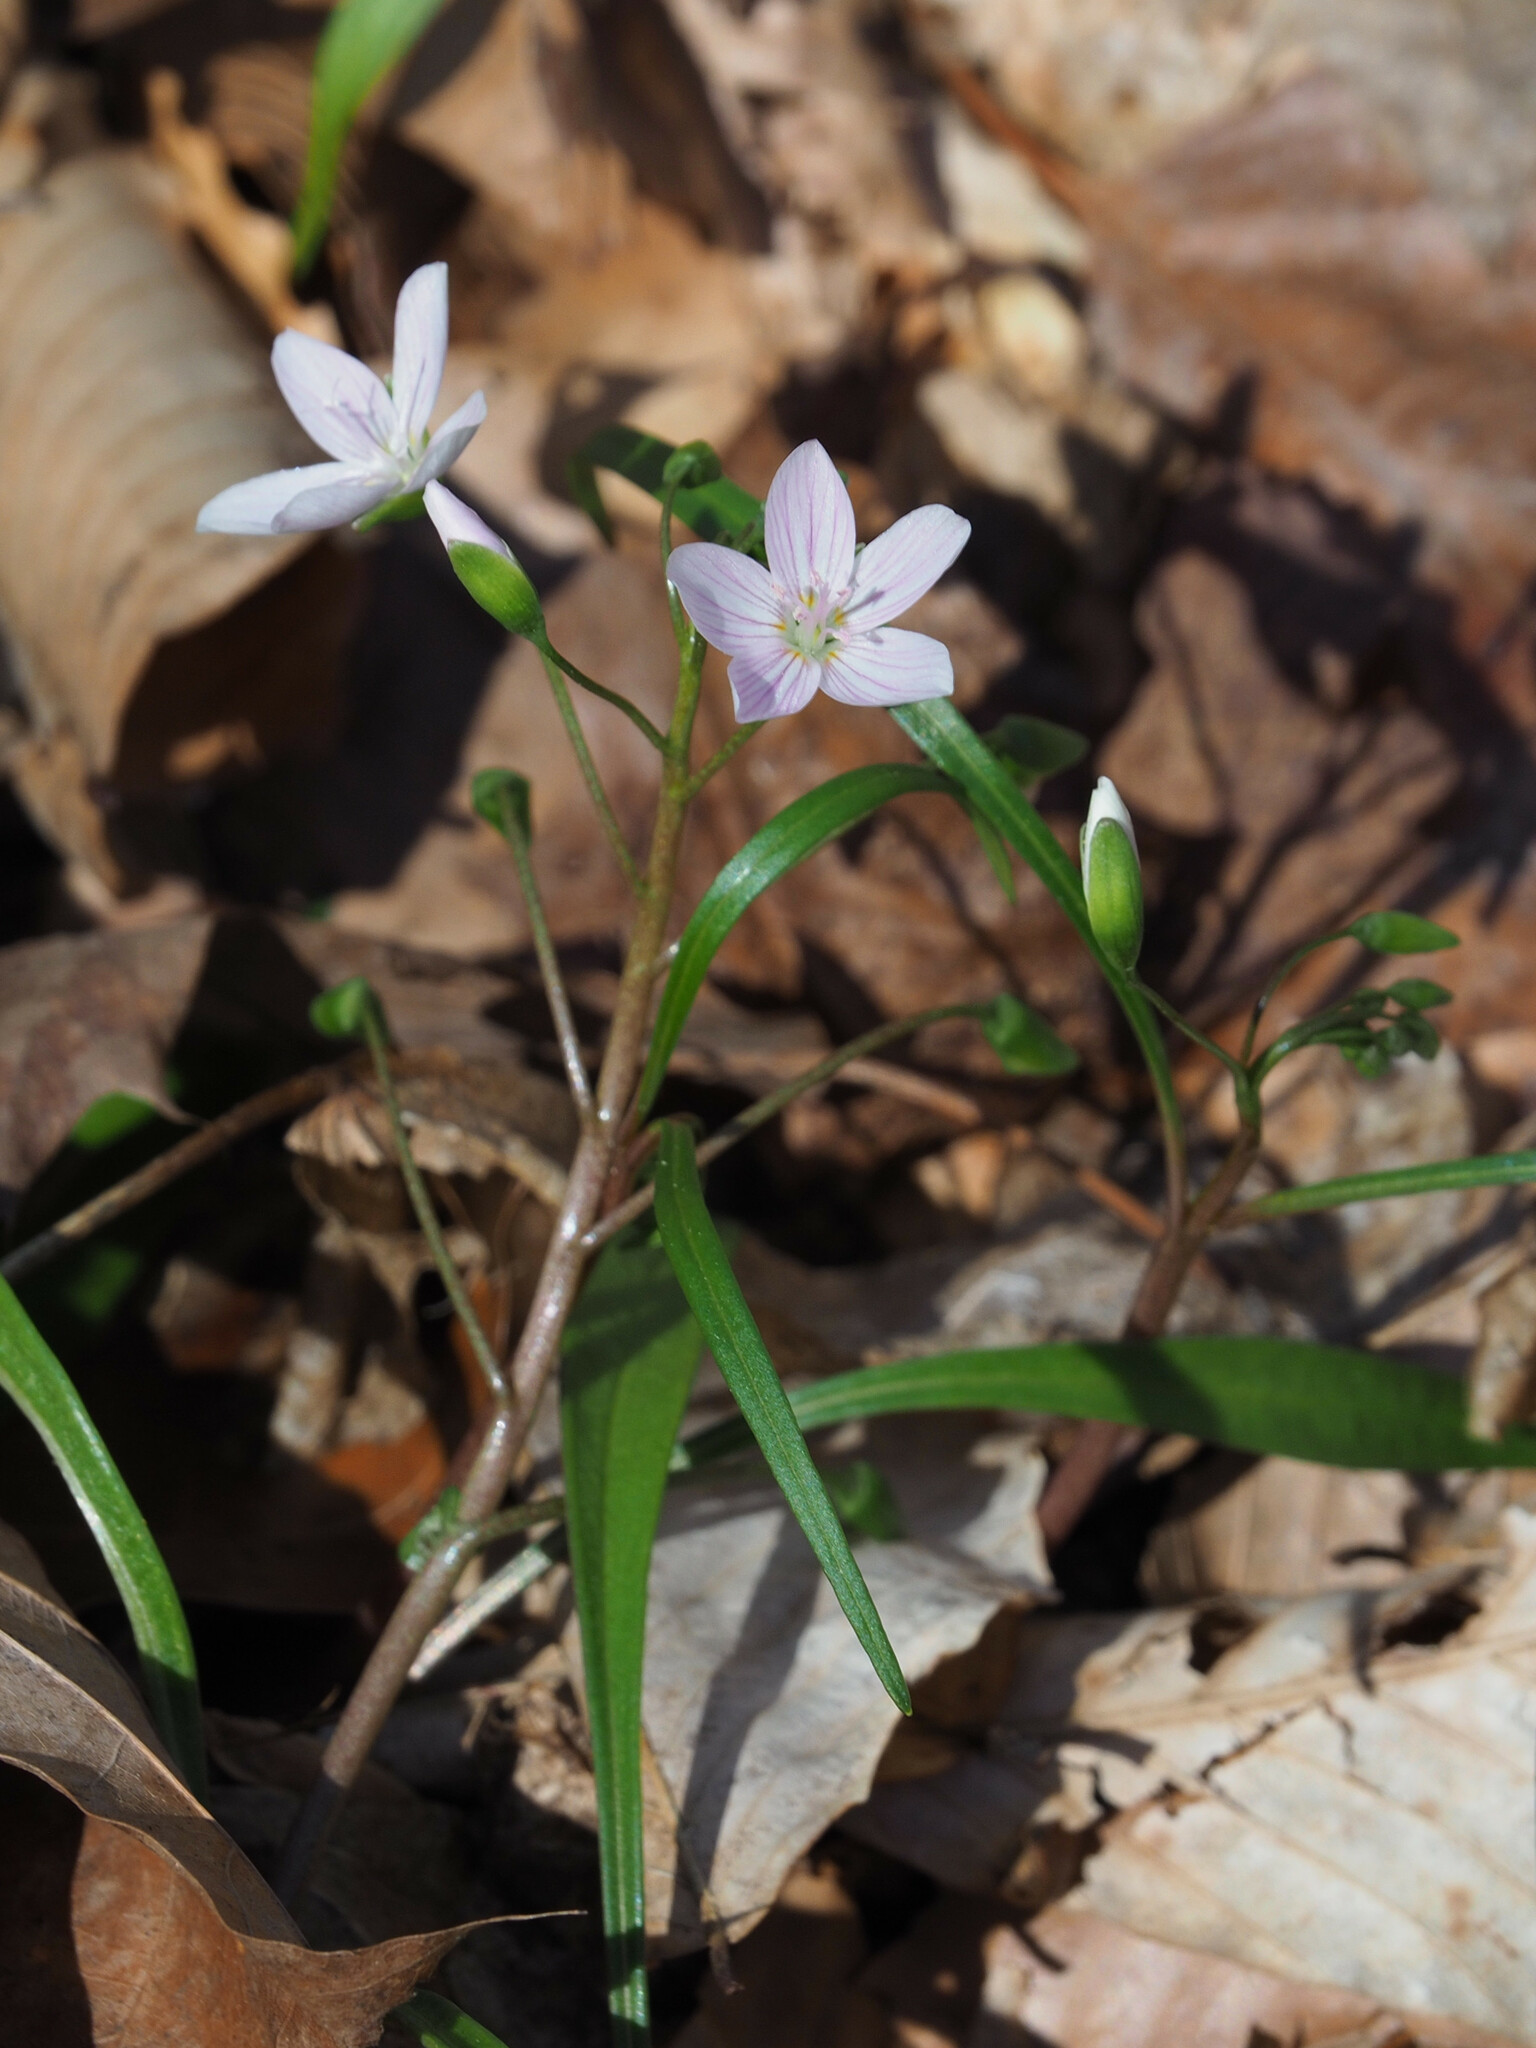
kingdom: Plantae
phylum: Tracheophyta
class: Magnoliopsida
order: Caryophyllales
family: Montiaceae
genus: Claytonia
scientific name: Claytonia virginica
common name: Virginia springbeauty
